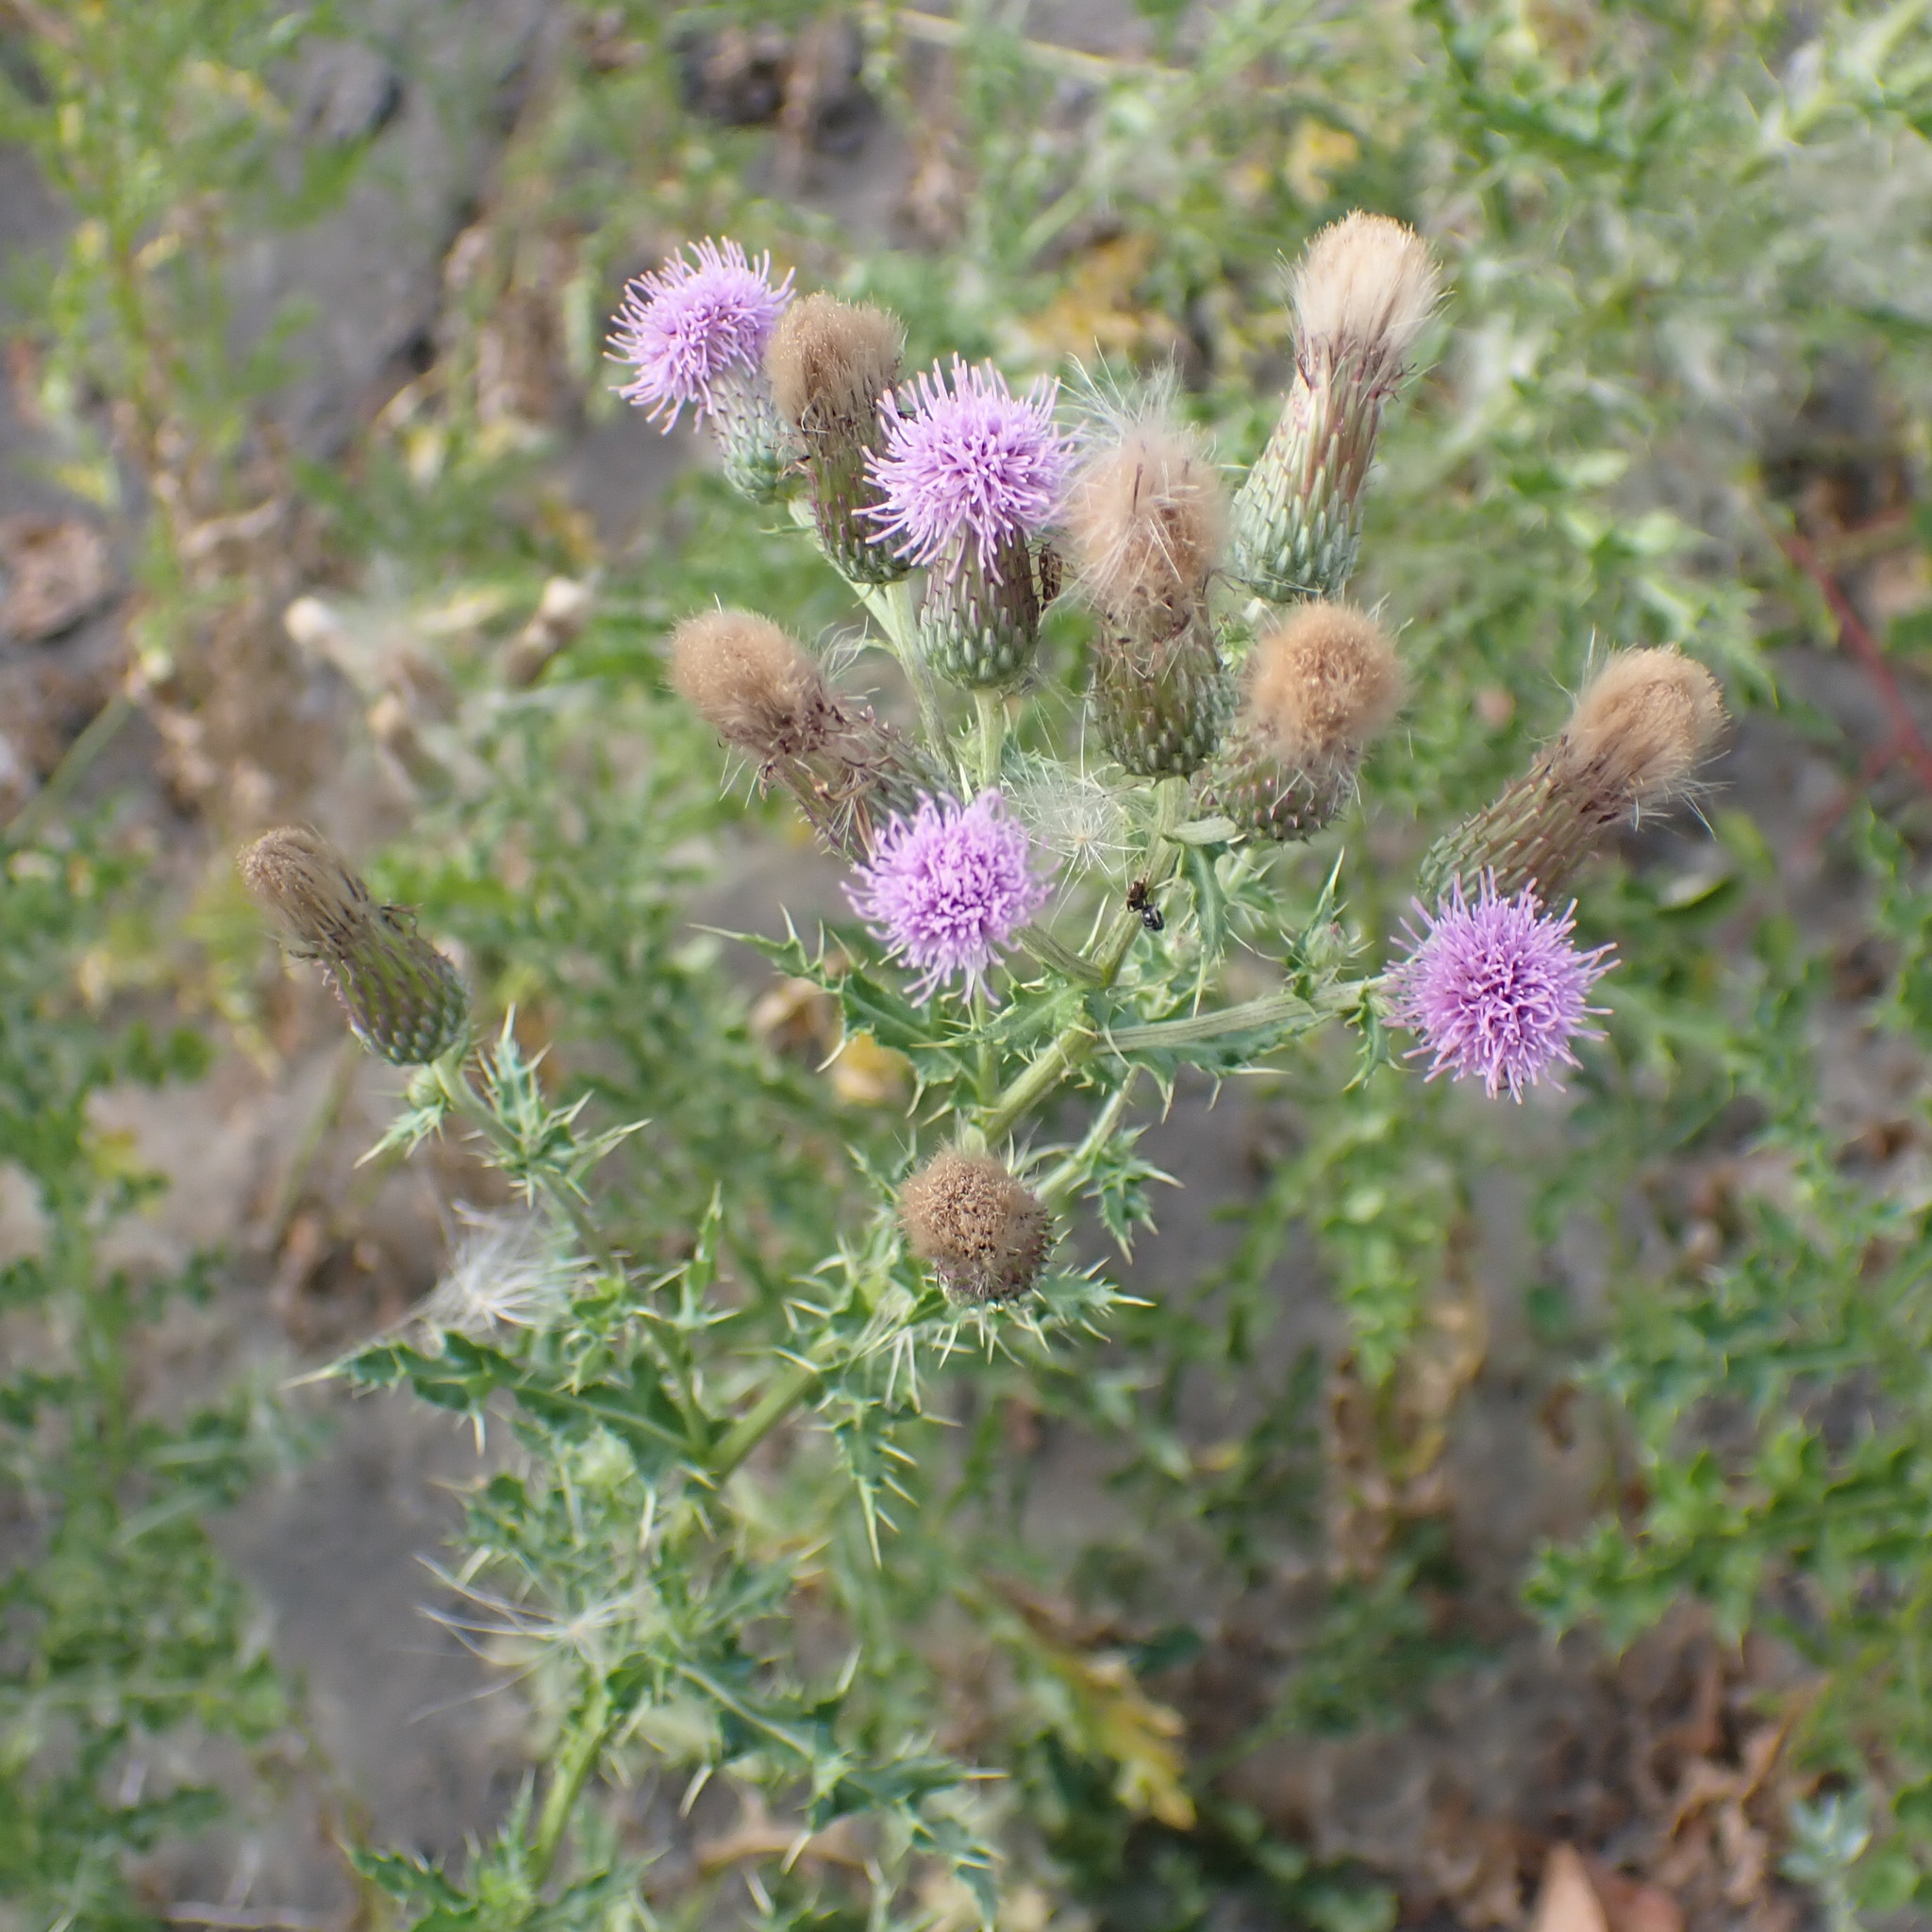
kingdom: Plantae
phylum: Tracheophyta
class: Magnoliopsida
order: Asterales
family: Asteraceae
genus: Cirsium
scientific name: Cirsium arvense
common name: Creeping thistle
